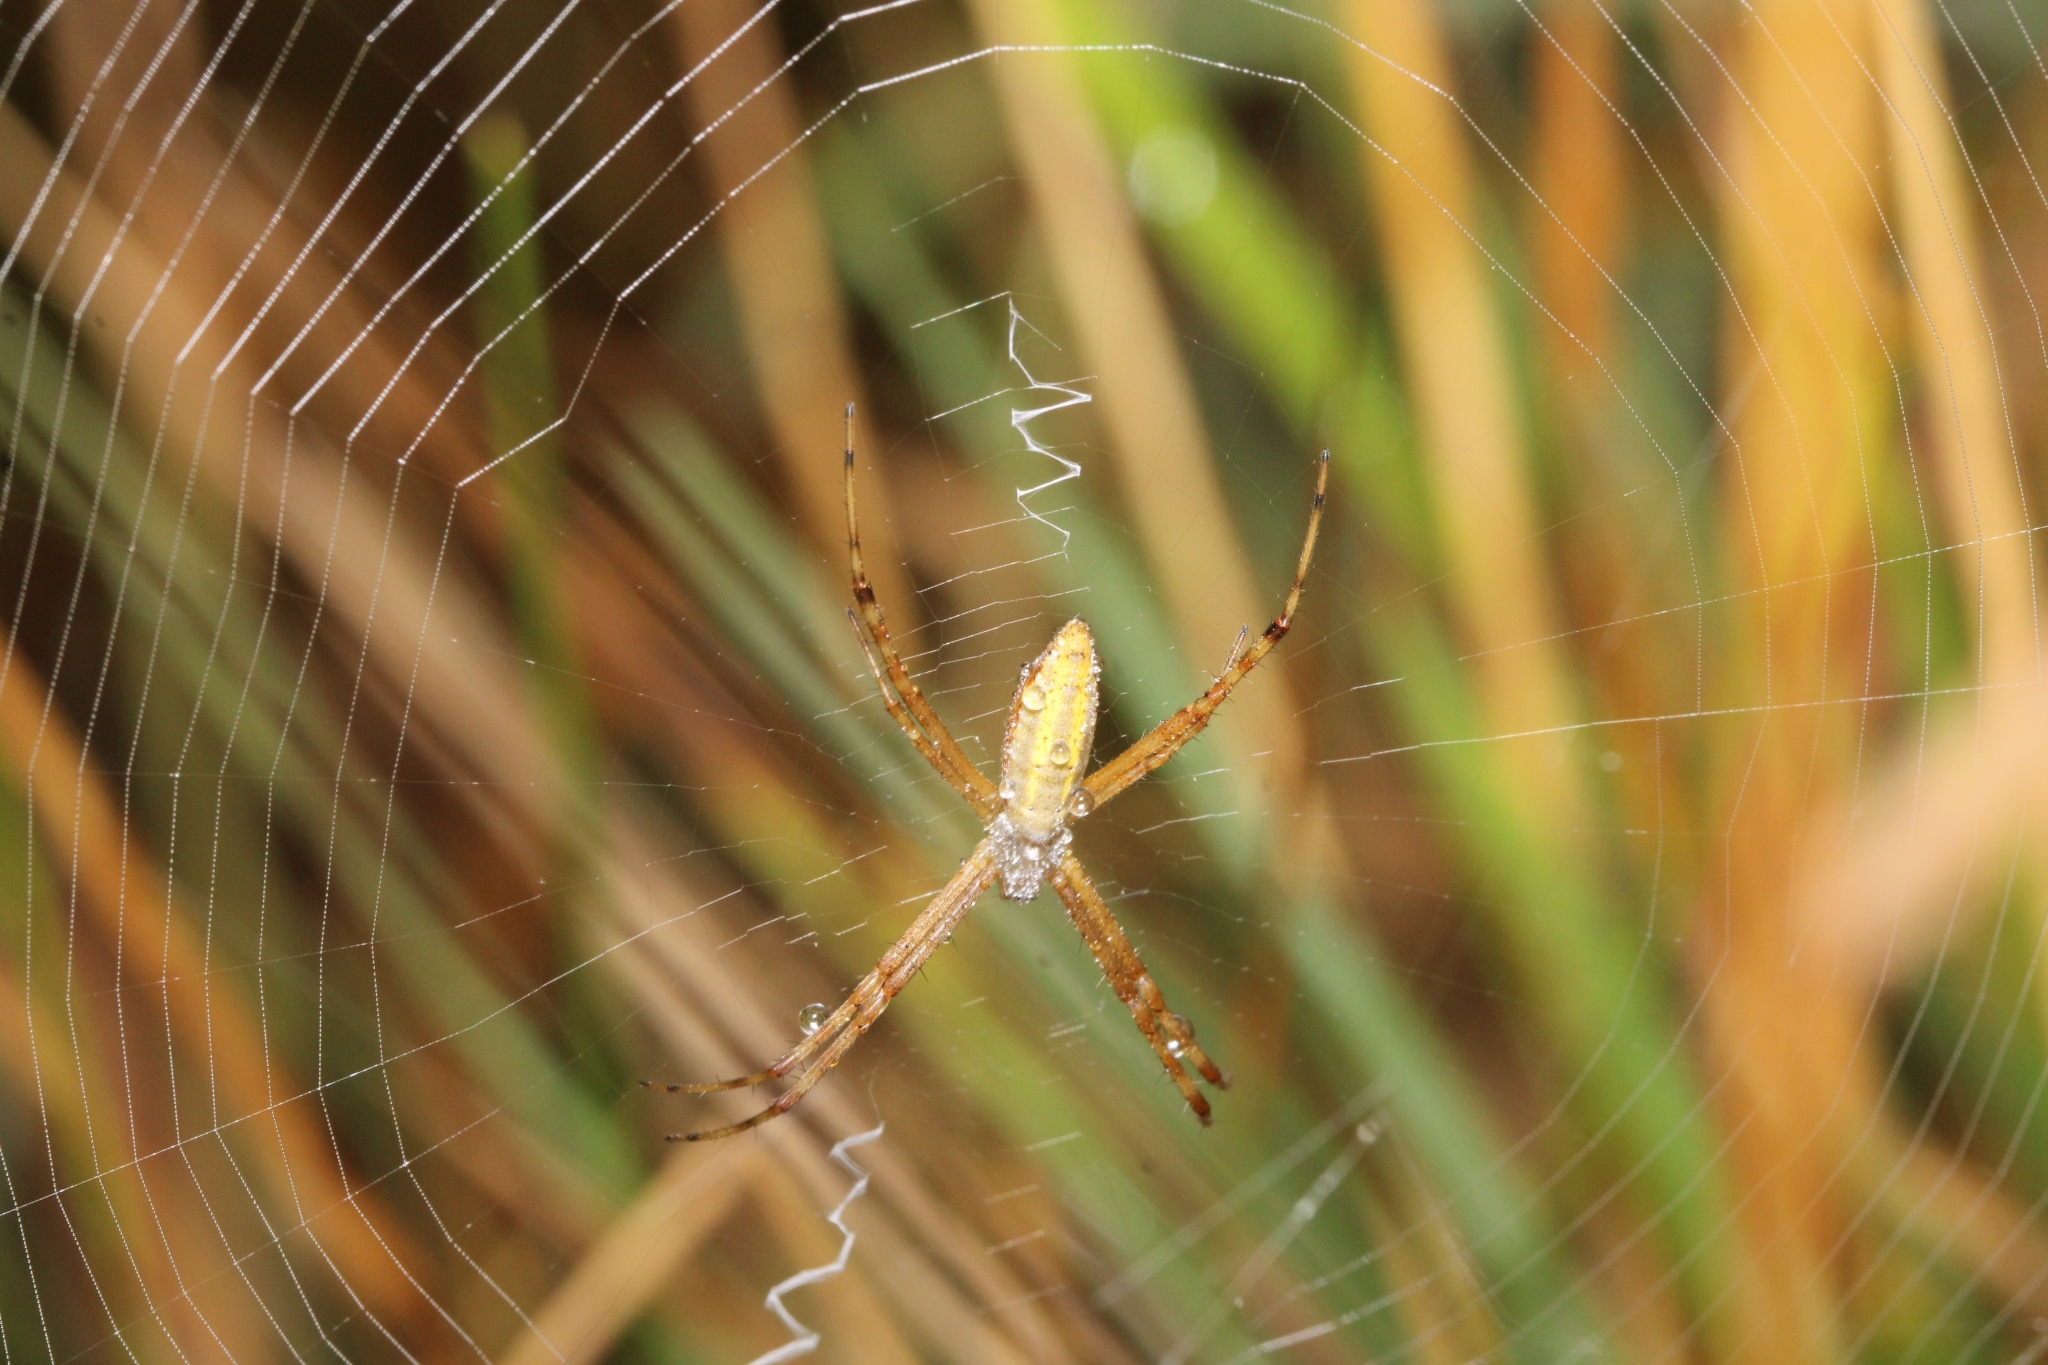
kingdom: Animalia
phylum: Arthropoda
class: Arachnida
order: Araneae
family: Araneidae
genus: Argiope
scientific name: Argiope trifasciata
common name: Banded garden spider
